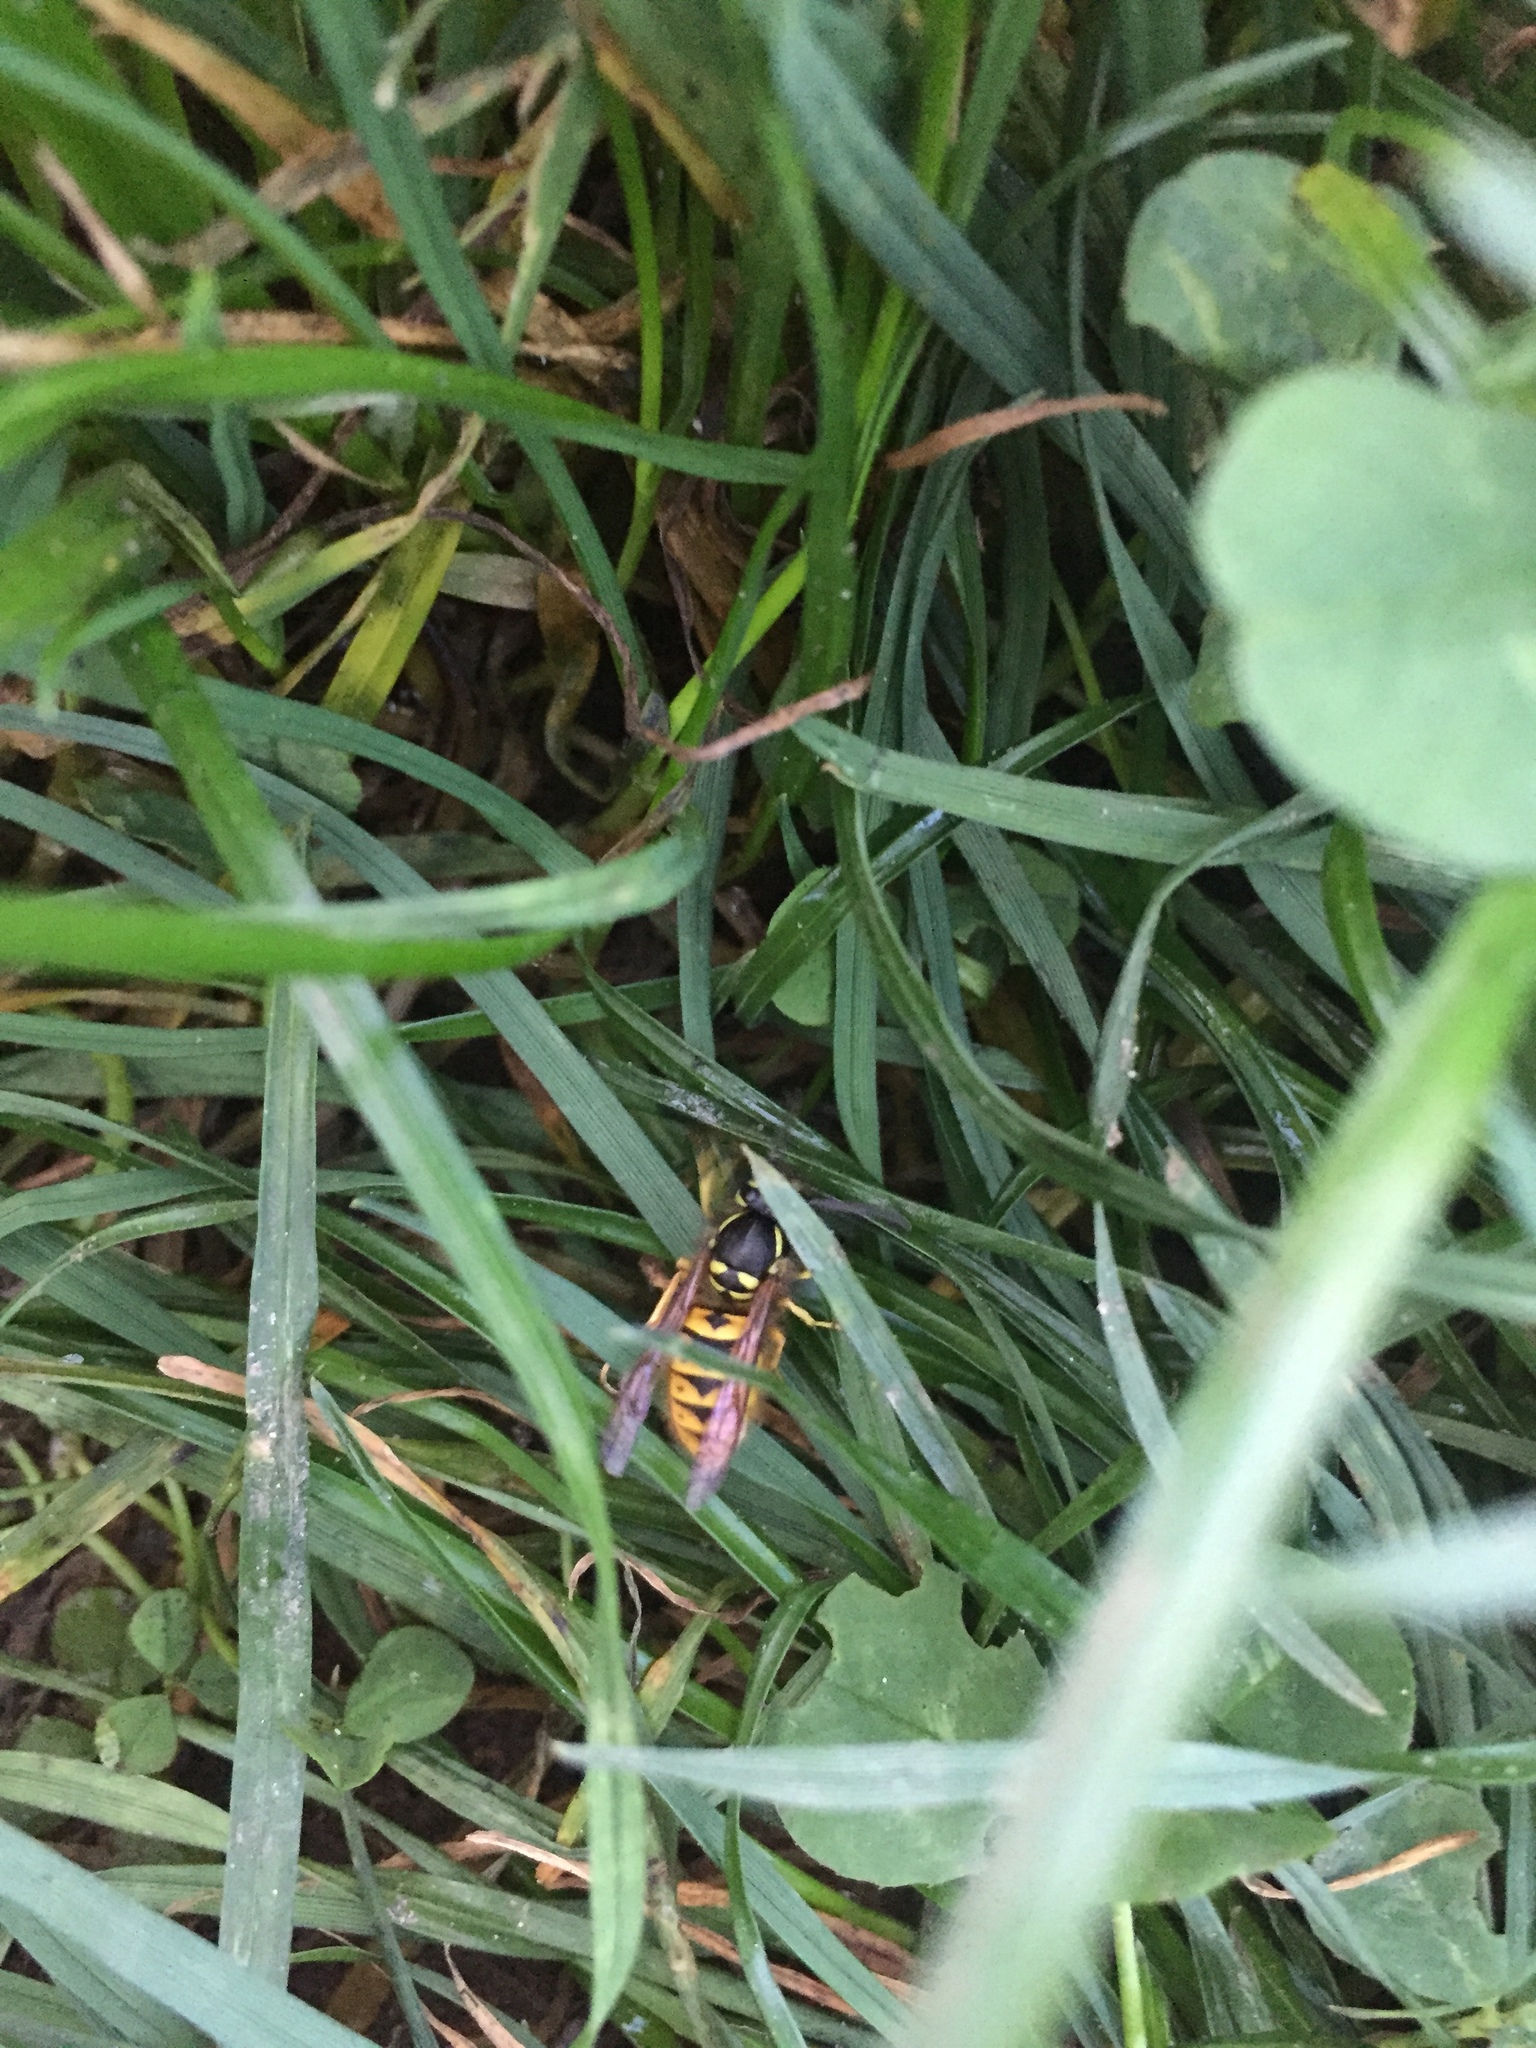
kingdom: Animalia
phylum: Arthropoda
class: Insecta
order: Hymenoptera
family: Vespidae
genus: Vespula
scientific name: Vespula germanica
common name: German wasp
